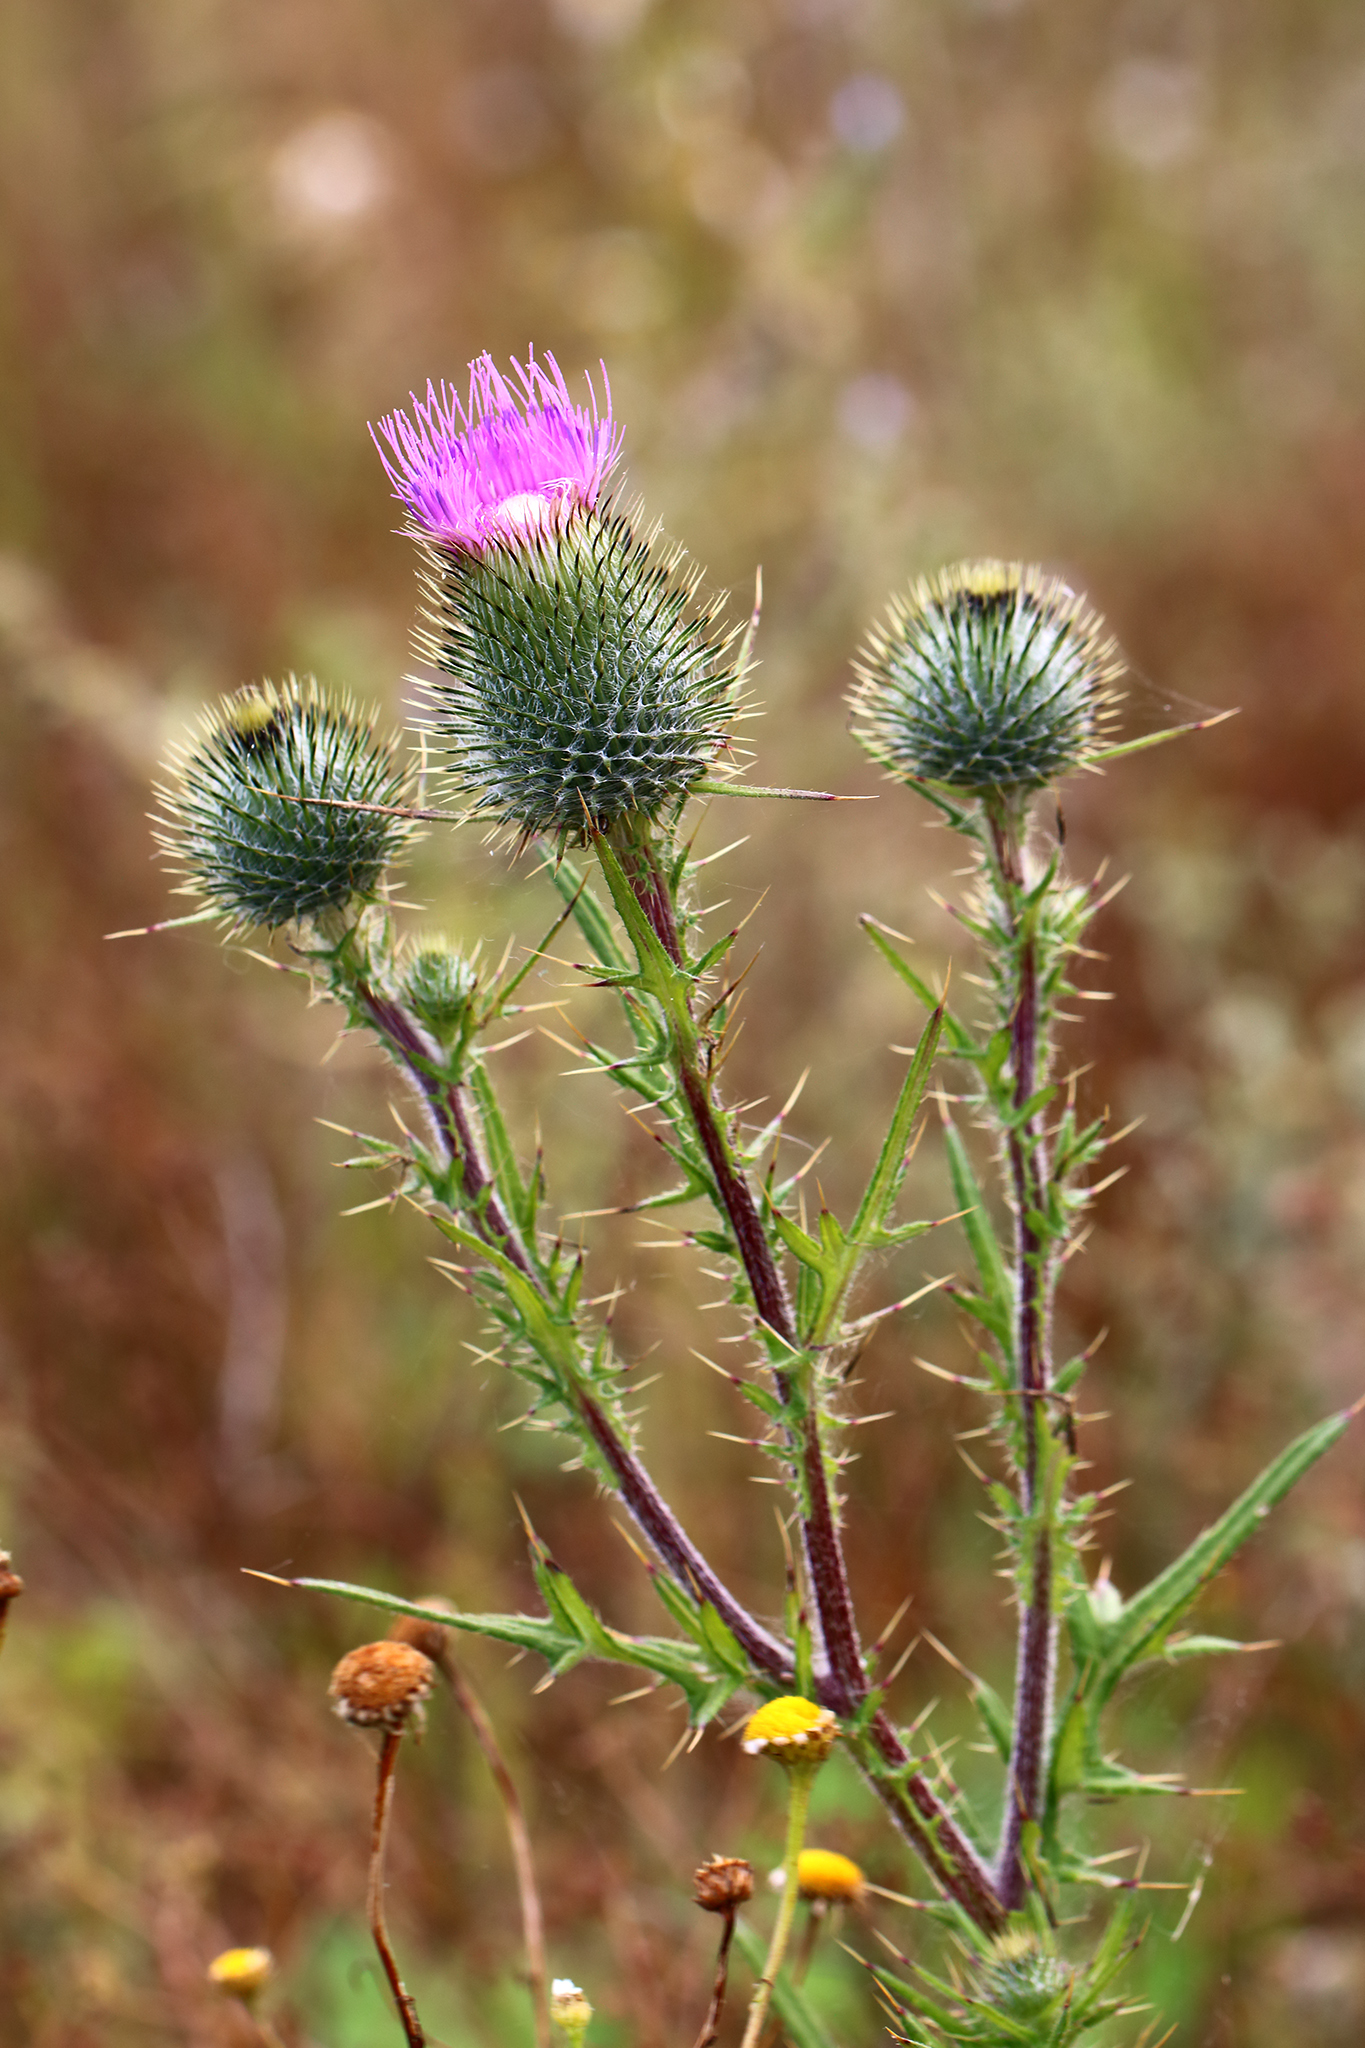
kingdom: Plantae
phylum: Tracheophyta
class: Magnoliopsida
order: Asterales
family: Asteraceae
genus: Cirsium
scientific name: Cirsium vulgare
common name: Bull thistle
